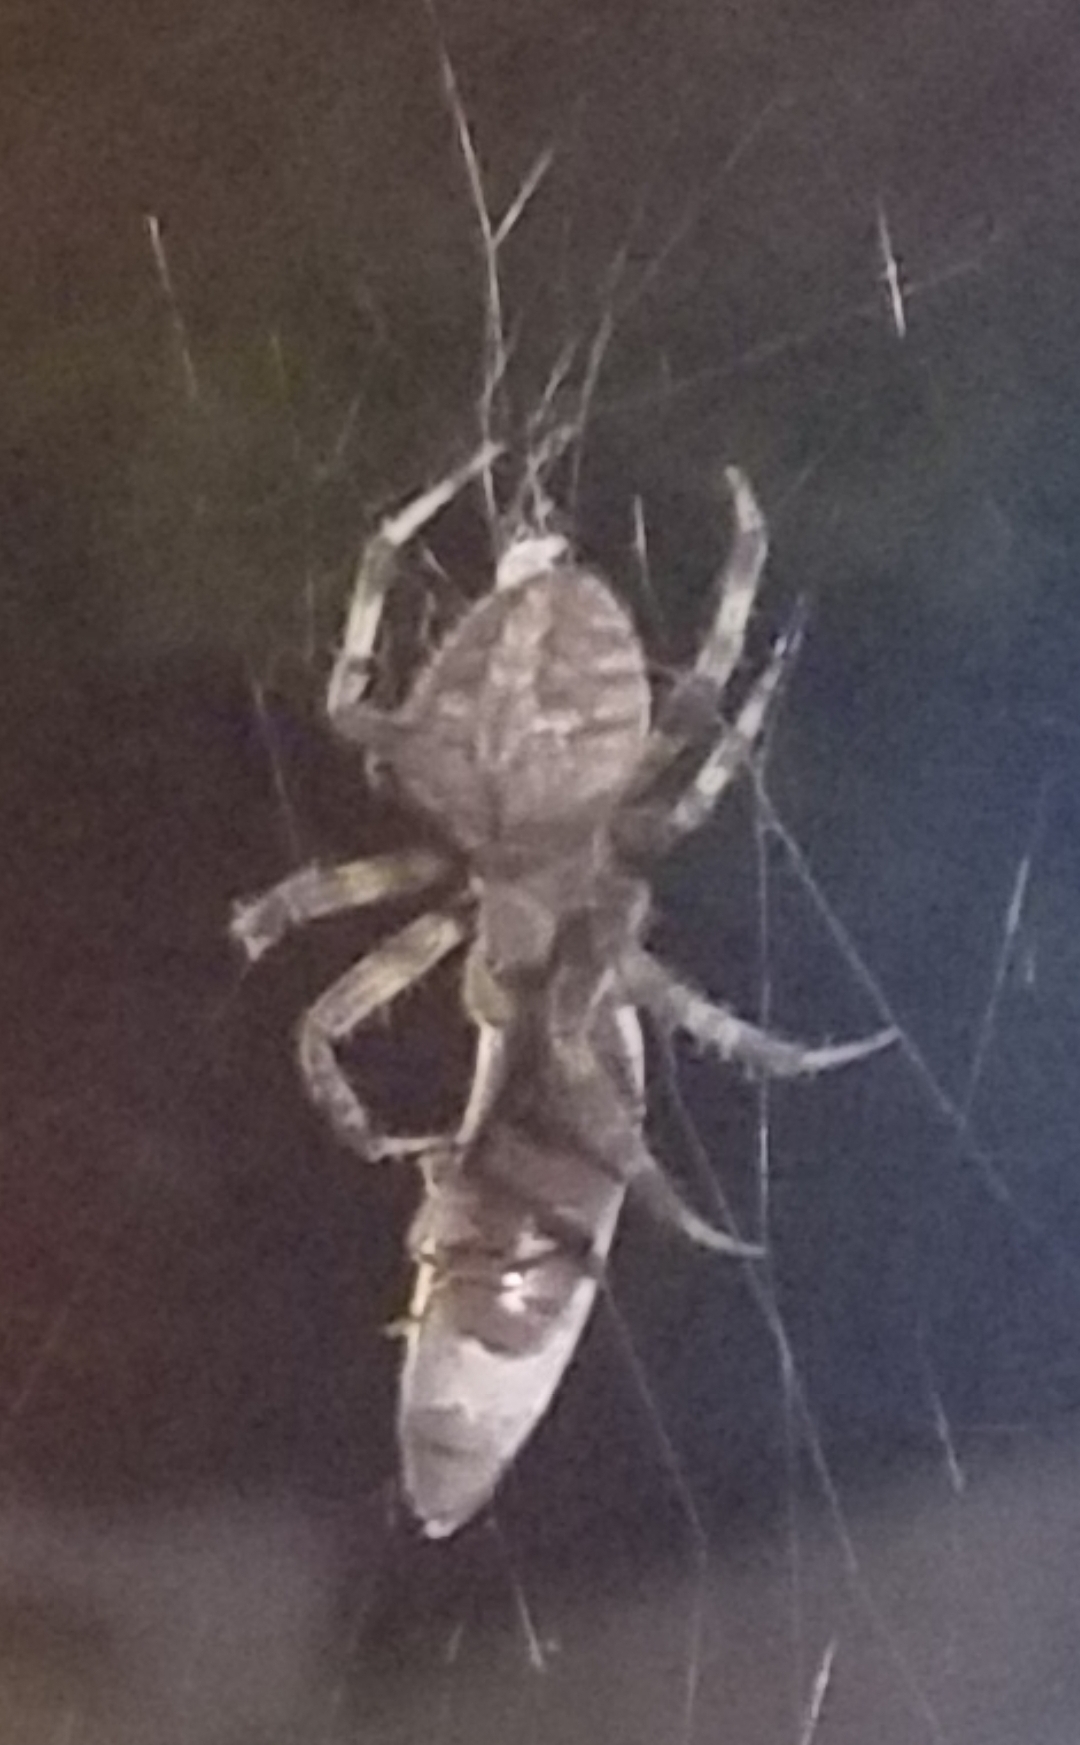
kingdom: Animalia
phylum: Arthropoda
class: Arachnida
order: Araneae
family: Araneidae
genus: Neoscona
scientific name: Neoscona crucifera
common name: Spotted orbweaver
